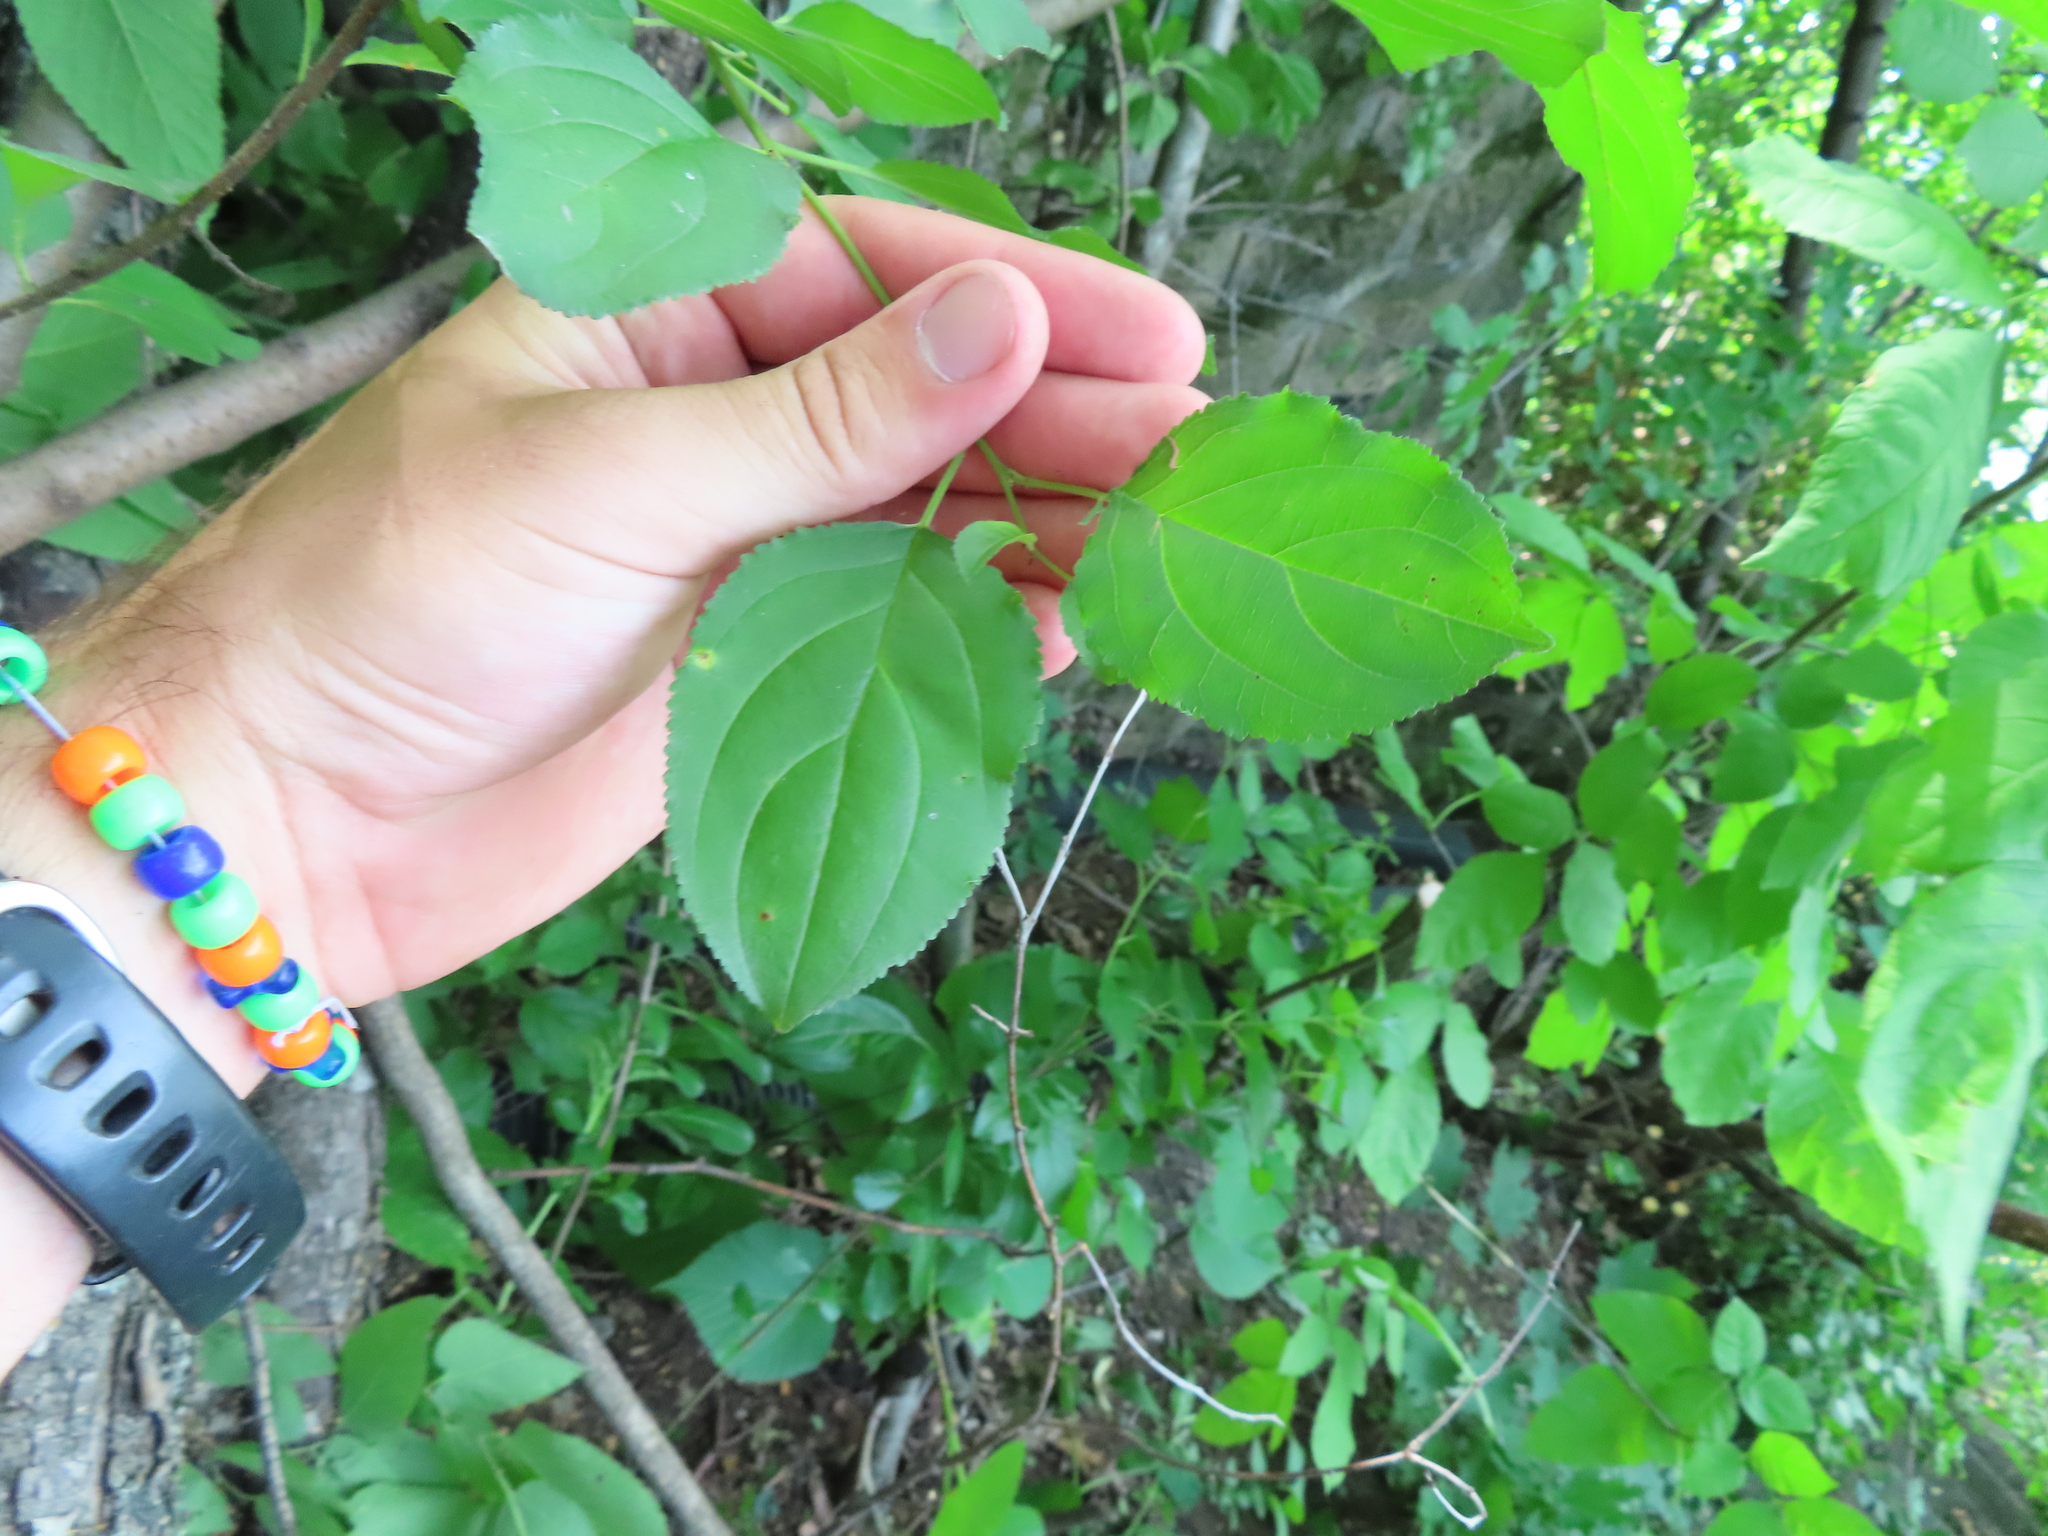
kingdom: Plantae
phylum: Tracheophyta
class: Magnoliopsida
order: Rosales
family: Rhamnaceae
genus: Rhamnus
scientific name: Rhamnus cathartica
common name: Common buckthorn
